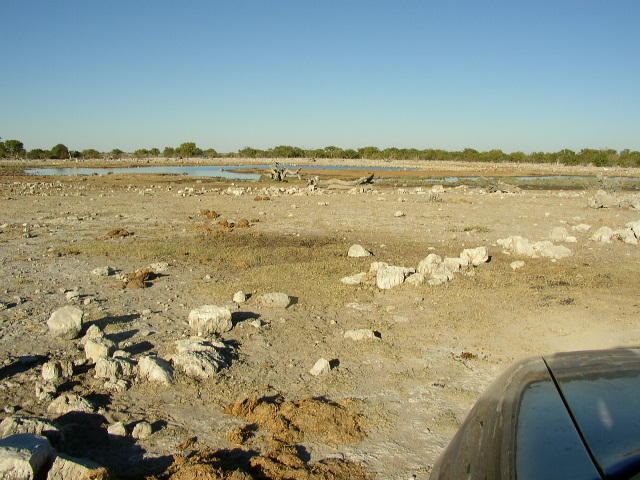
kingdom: Animalia
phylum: Chordata
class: Mammalia
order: Proboscidea
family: Elephantidae
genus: Loxodonta
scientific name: Loxodonta africana
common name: African elephant
